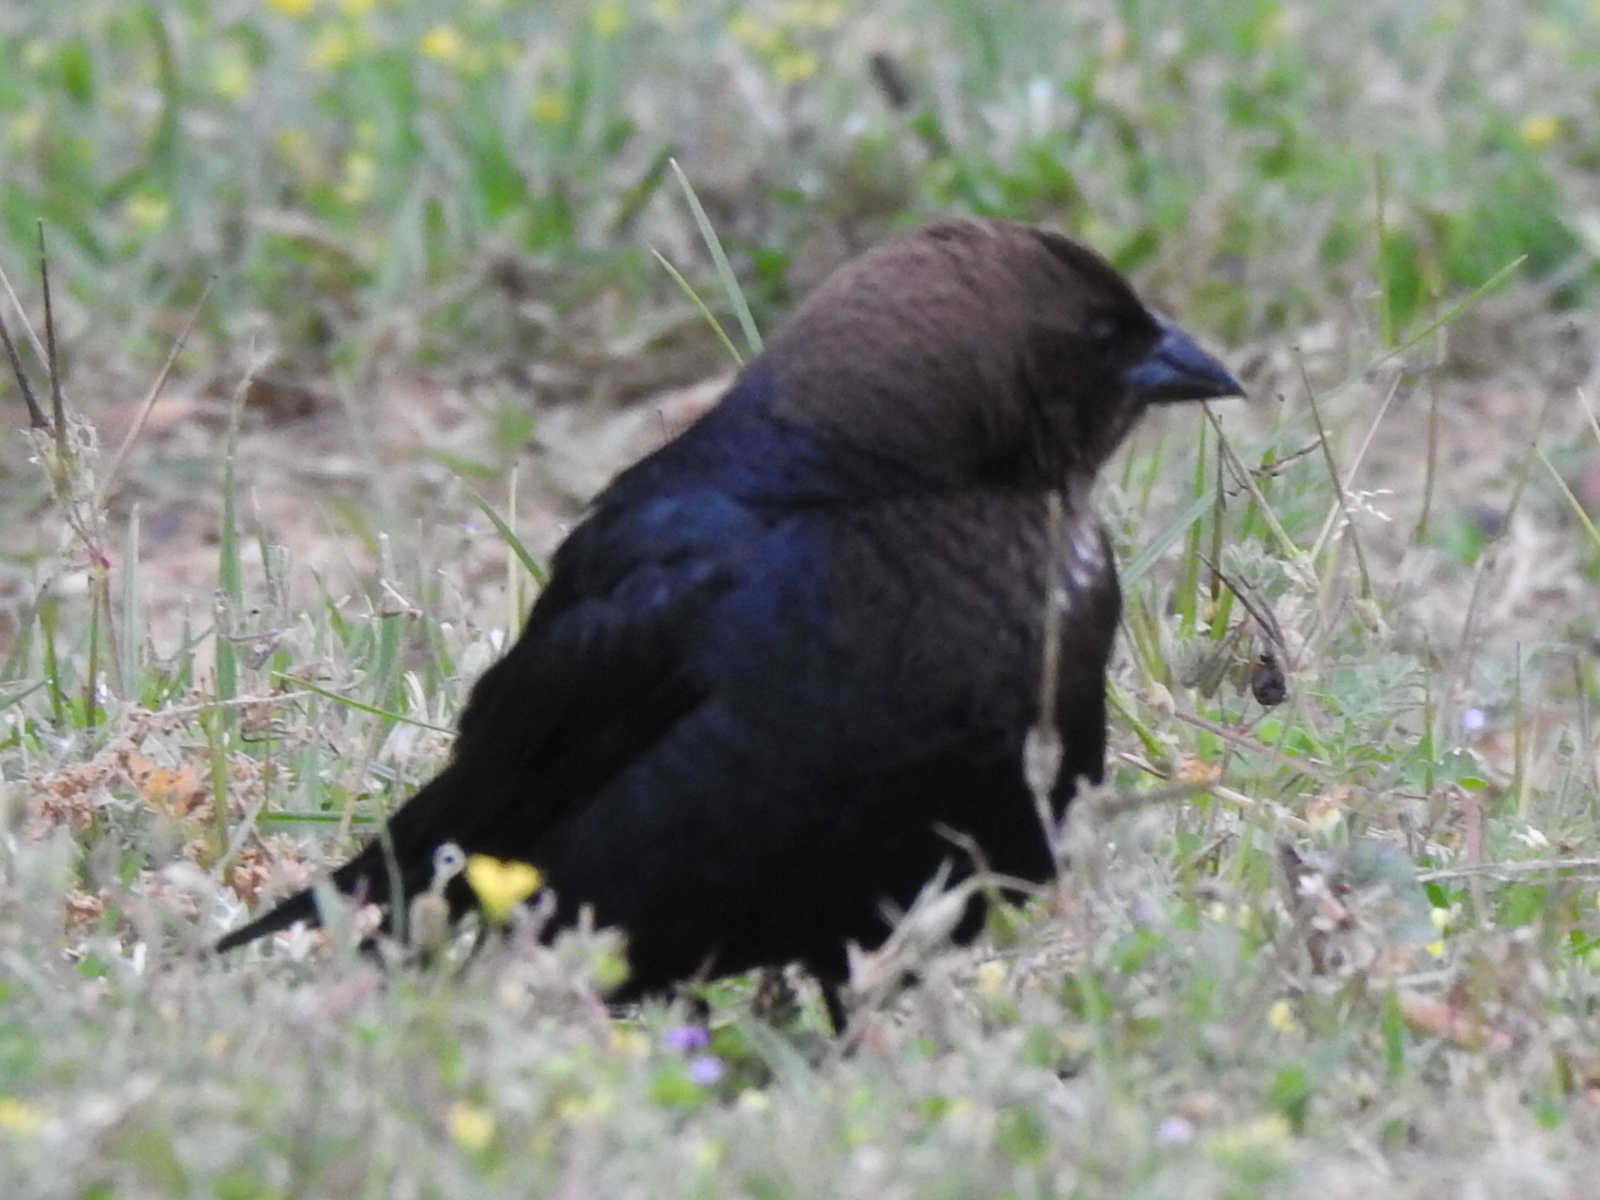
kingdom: Animalia
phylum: Chordata
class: Aves
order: Passeriformes
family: Icteridae
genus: Molothrus
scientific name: Molothrus ater
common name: Brown-headed cowbird
